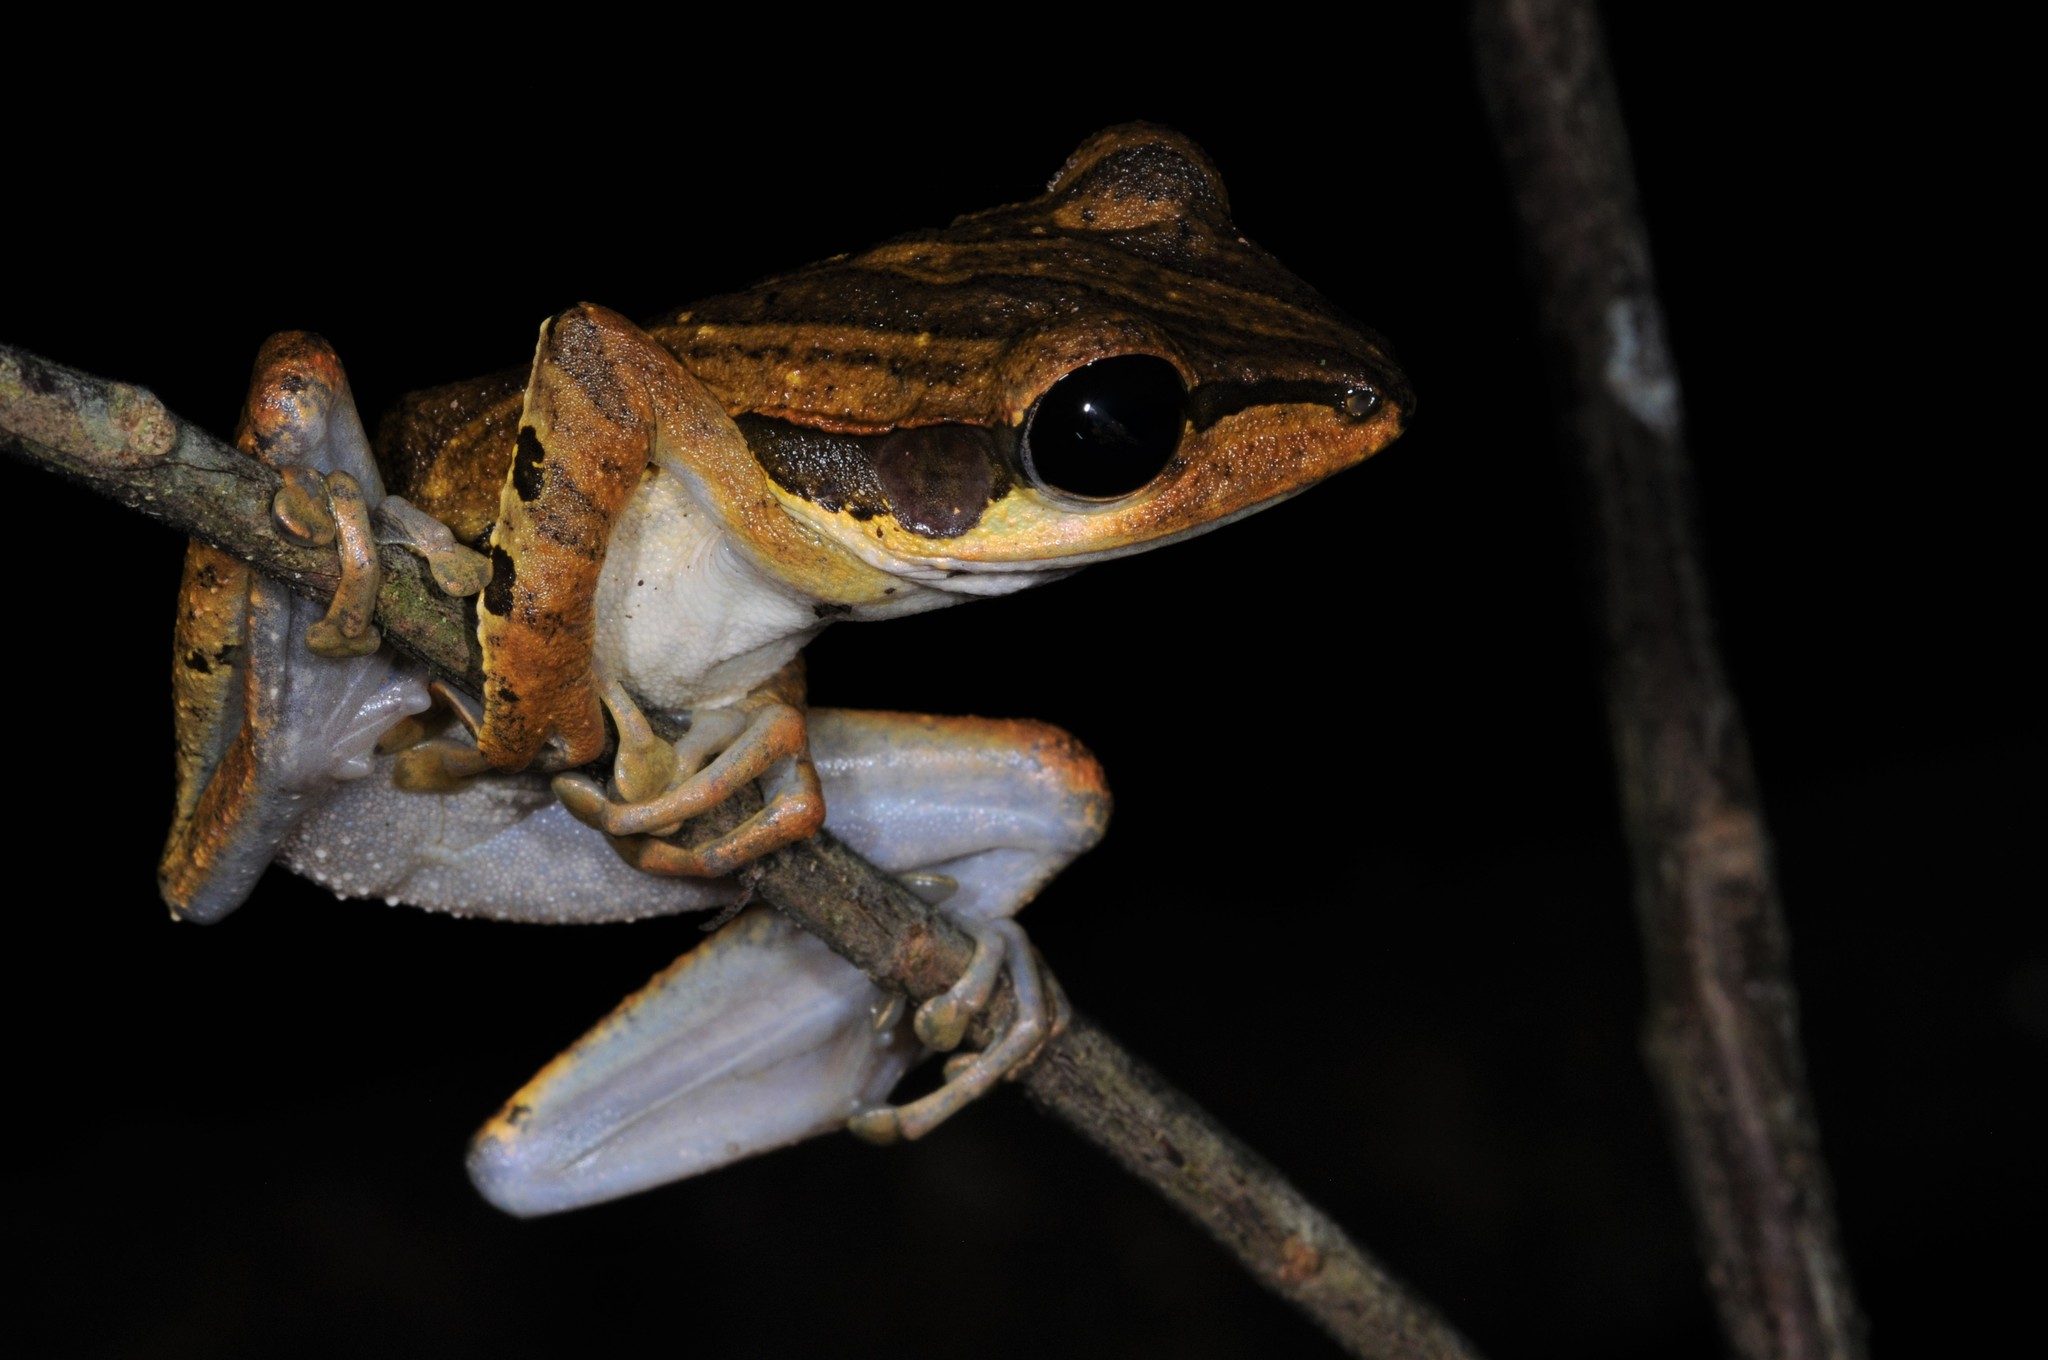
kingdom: Animalia
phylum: Chordata
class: Amphibia
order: Anura
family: Rhacophoridae
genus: Polypedates
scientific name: Polypedates macrotis
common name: Dark-eared tree frog
